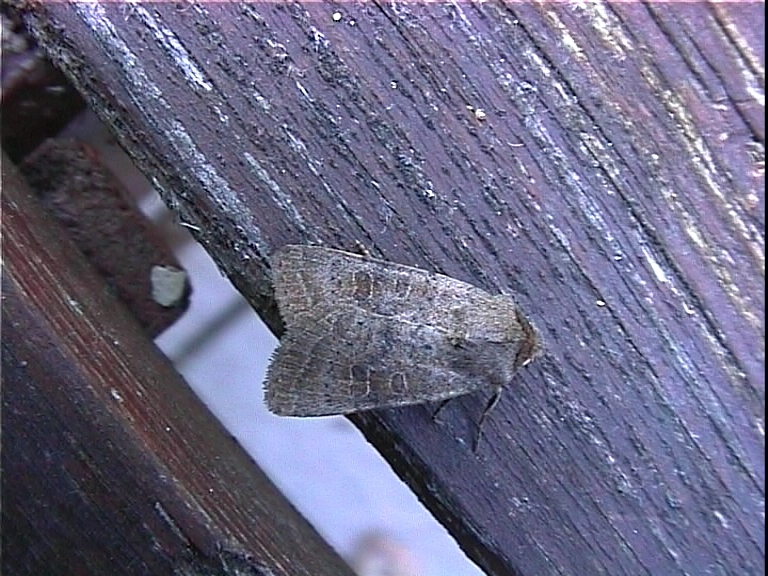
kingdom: Animalia
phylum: Arthropoda
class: Insecta
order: Lepidoptera
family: Noctuidae
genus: Hoplodrina
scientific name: Hoplodrina ambigua
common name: Vine's rustic
